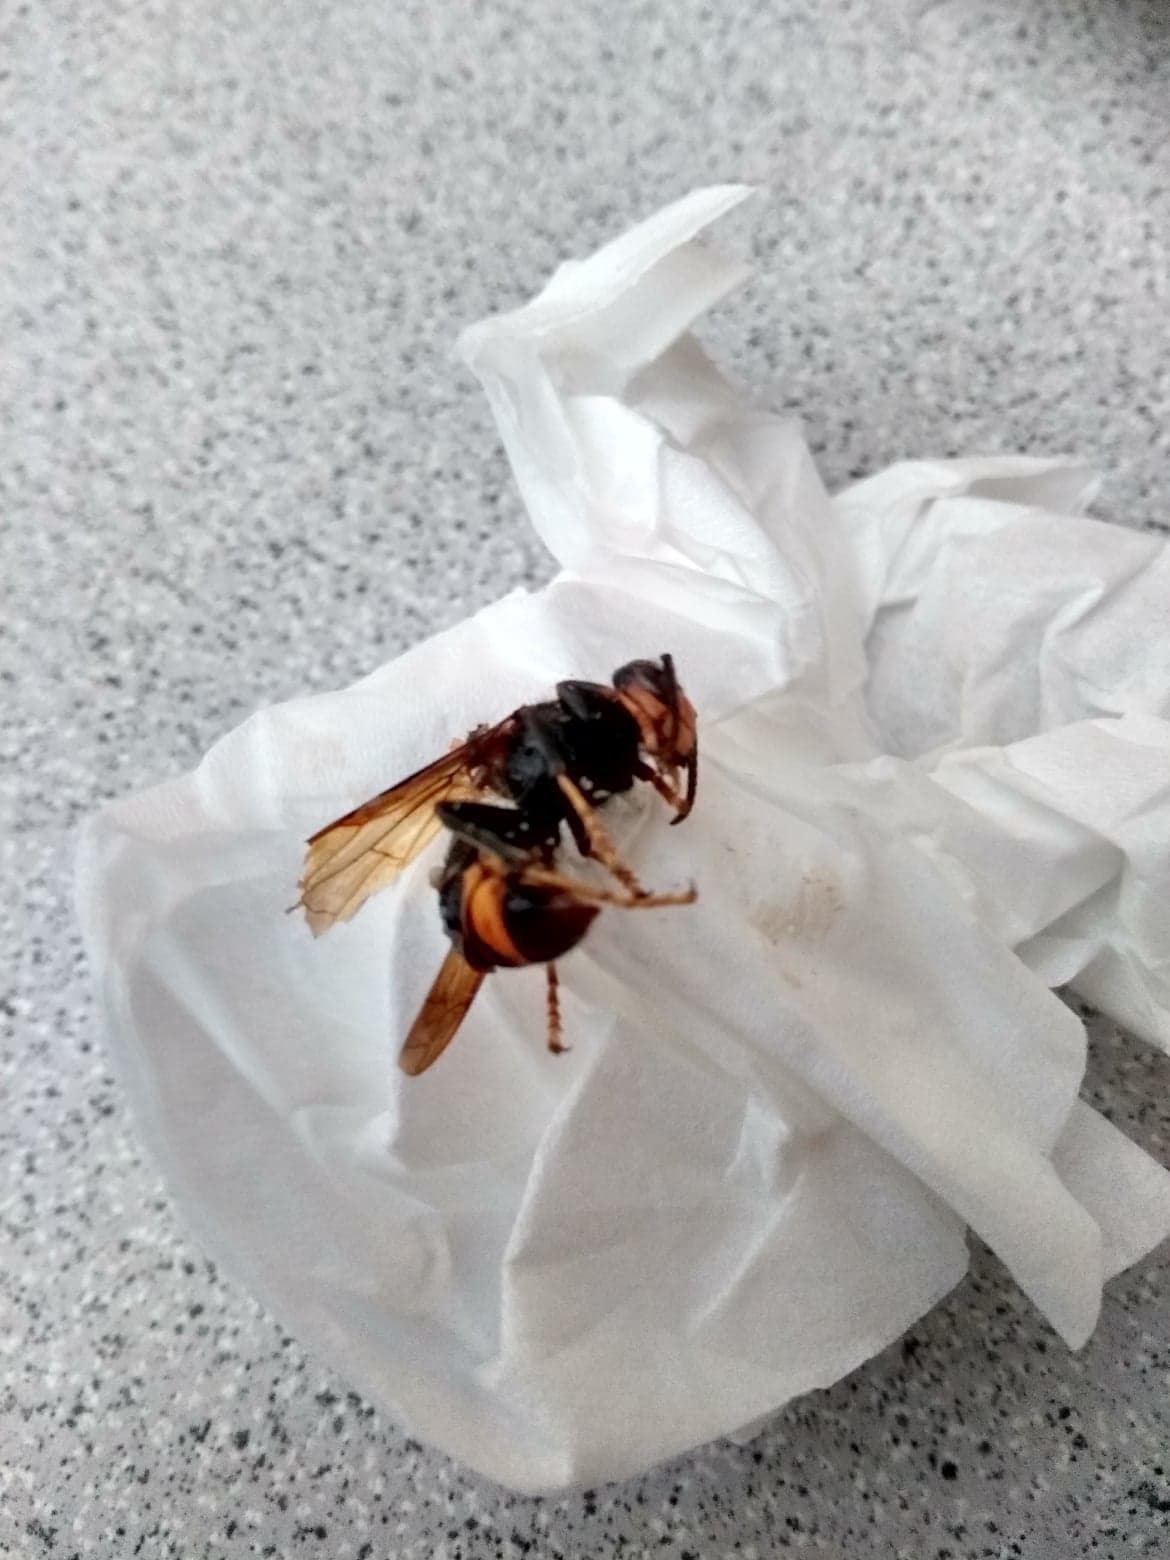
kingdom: Animalia
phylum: Arthropoda
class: Insecta
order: Hymenoptera
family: Vespidae
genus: Vespa
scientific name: Vespa velutina
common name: Asian hornet
